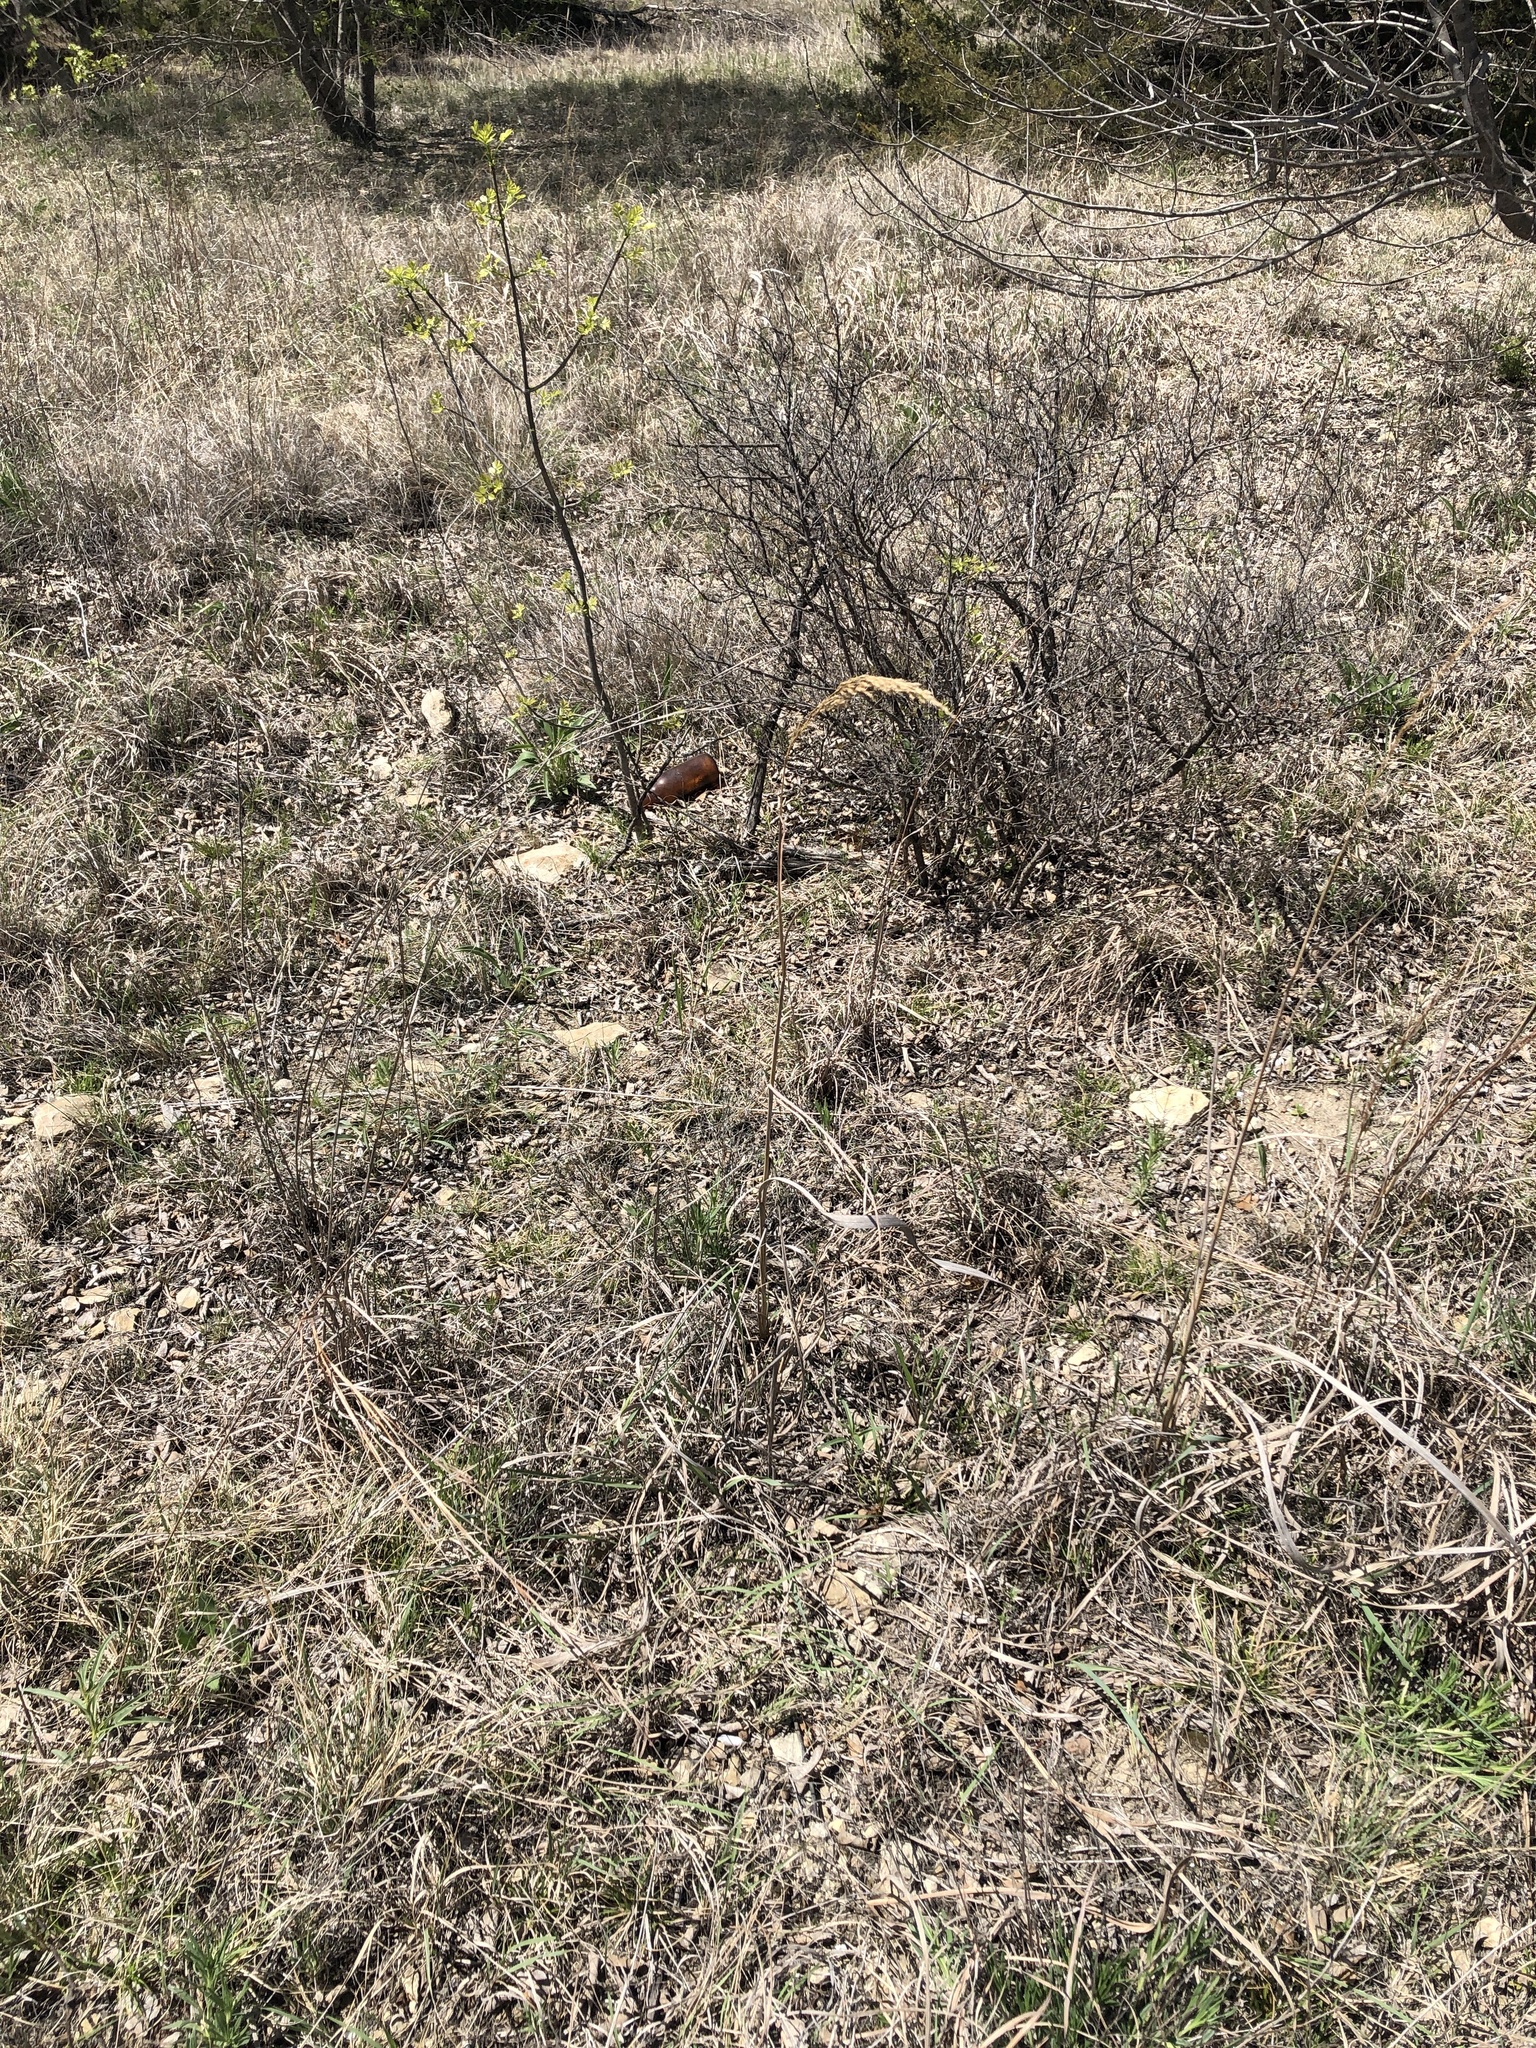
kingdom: Plantae
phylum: Tracheophyta
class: Liliopsida
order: Poales
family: Poaceae
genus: Sorghastrum
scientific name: Sorghastrum nutans
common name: Indian grass
